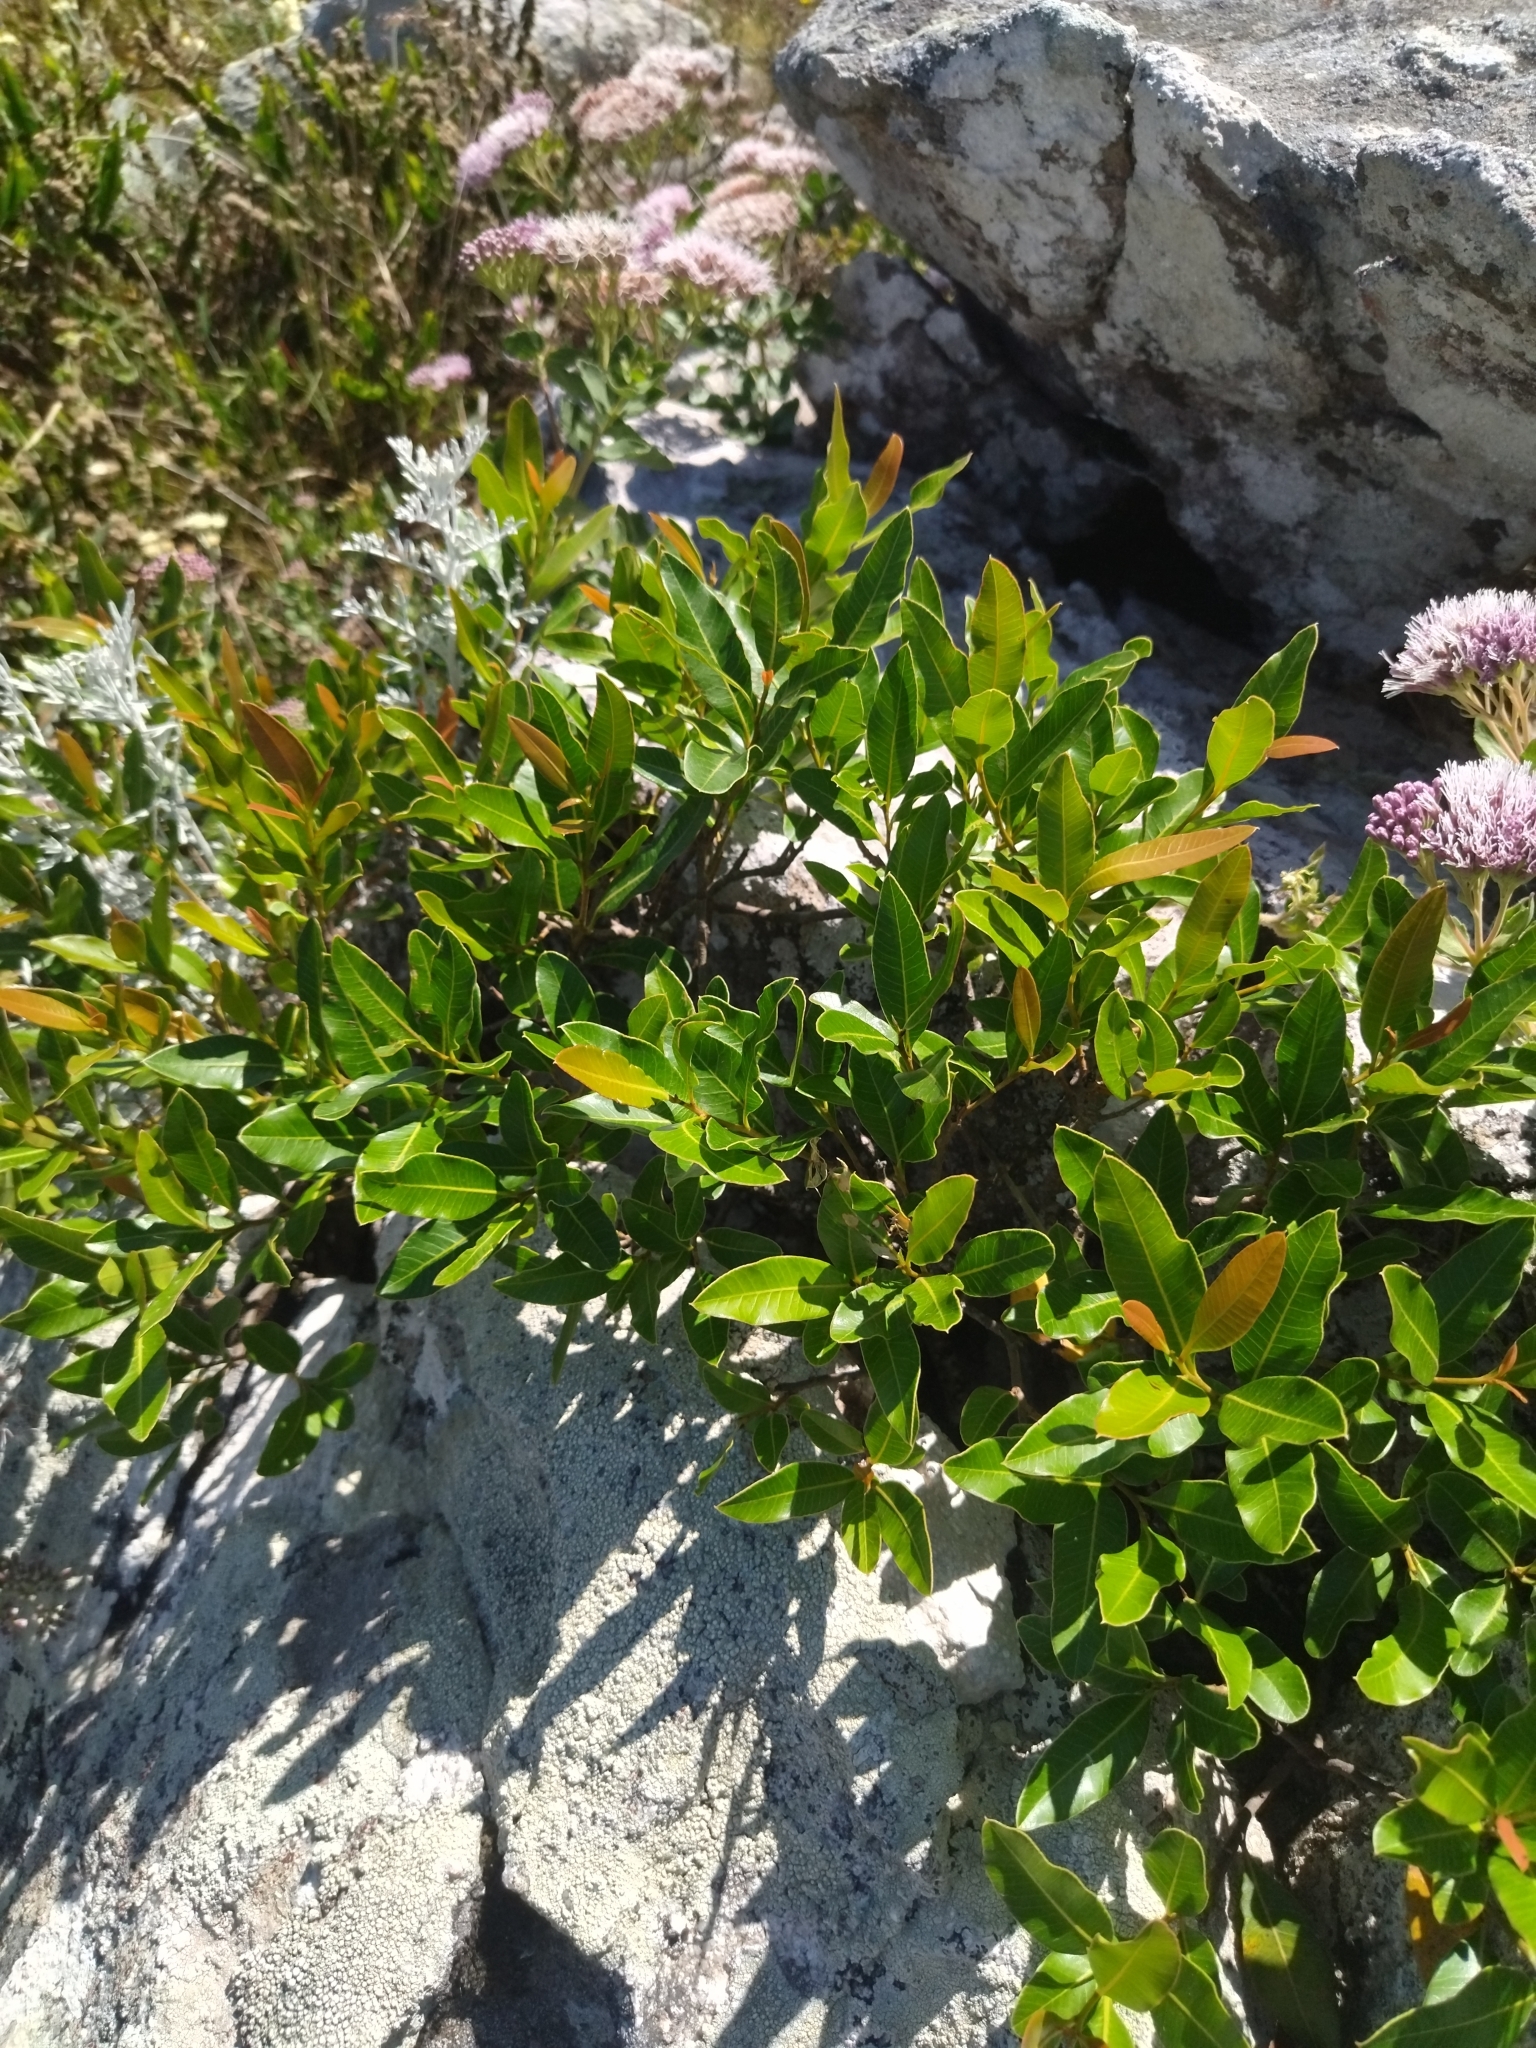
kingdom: Plantae
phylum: Tracheophyta
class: Magnoliopsida
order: Sapindales
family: Anacardiaceae
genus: Lithraea
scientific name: Lithraea brasiliensis
